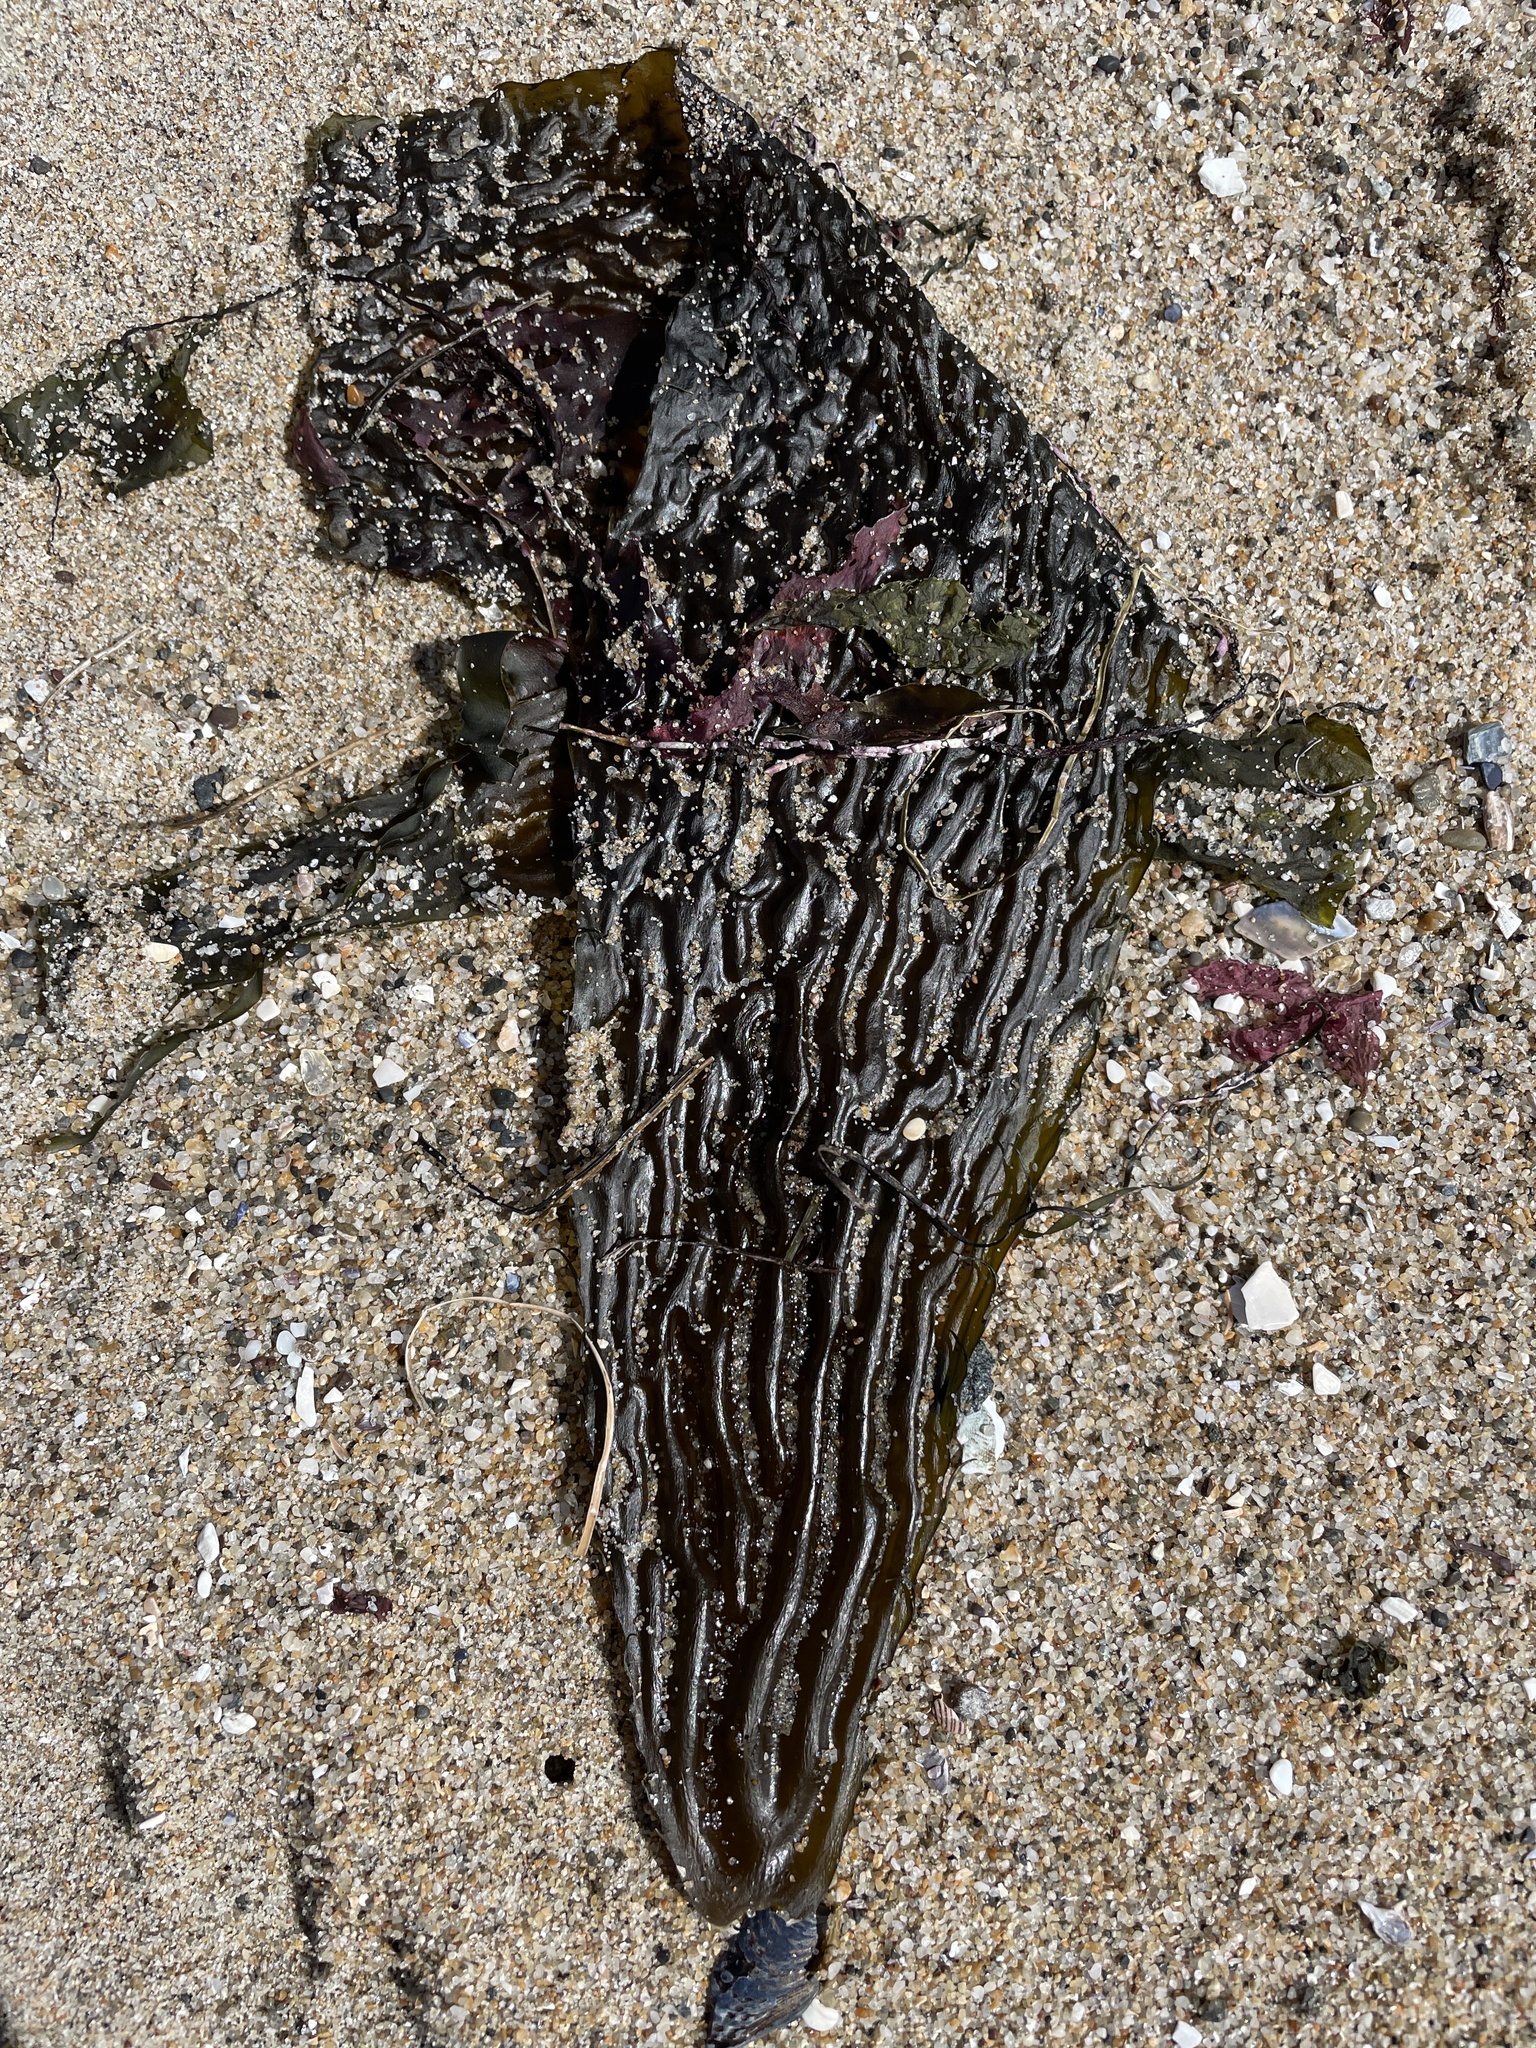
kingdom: Chromista
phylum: Ochrophyta
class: Phaeophyceae
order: Laminariales
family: Laminariaceae
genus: Macrocystis
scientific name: Macrocystis pyrifera
